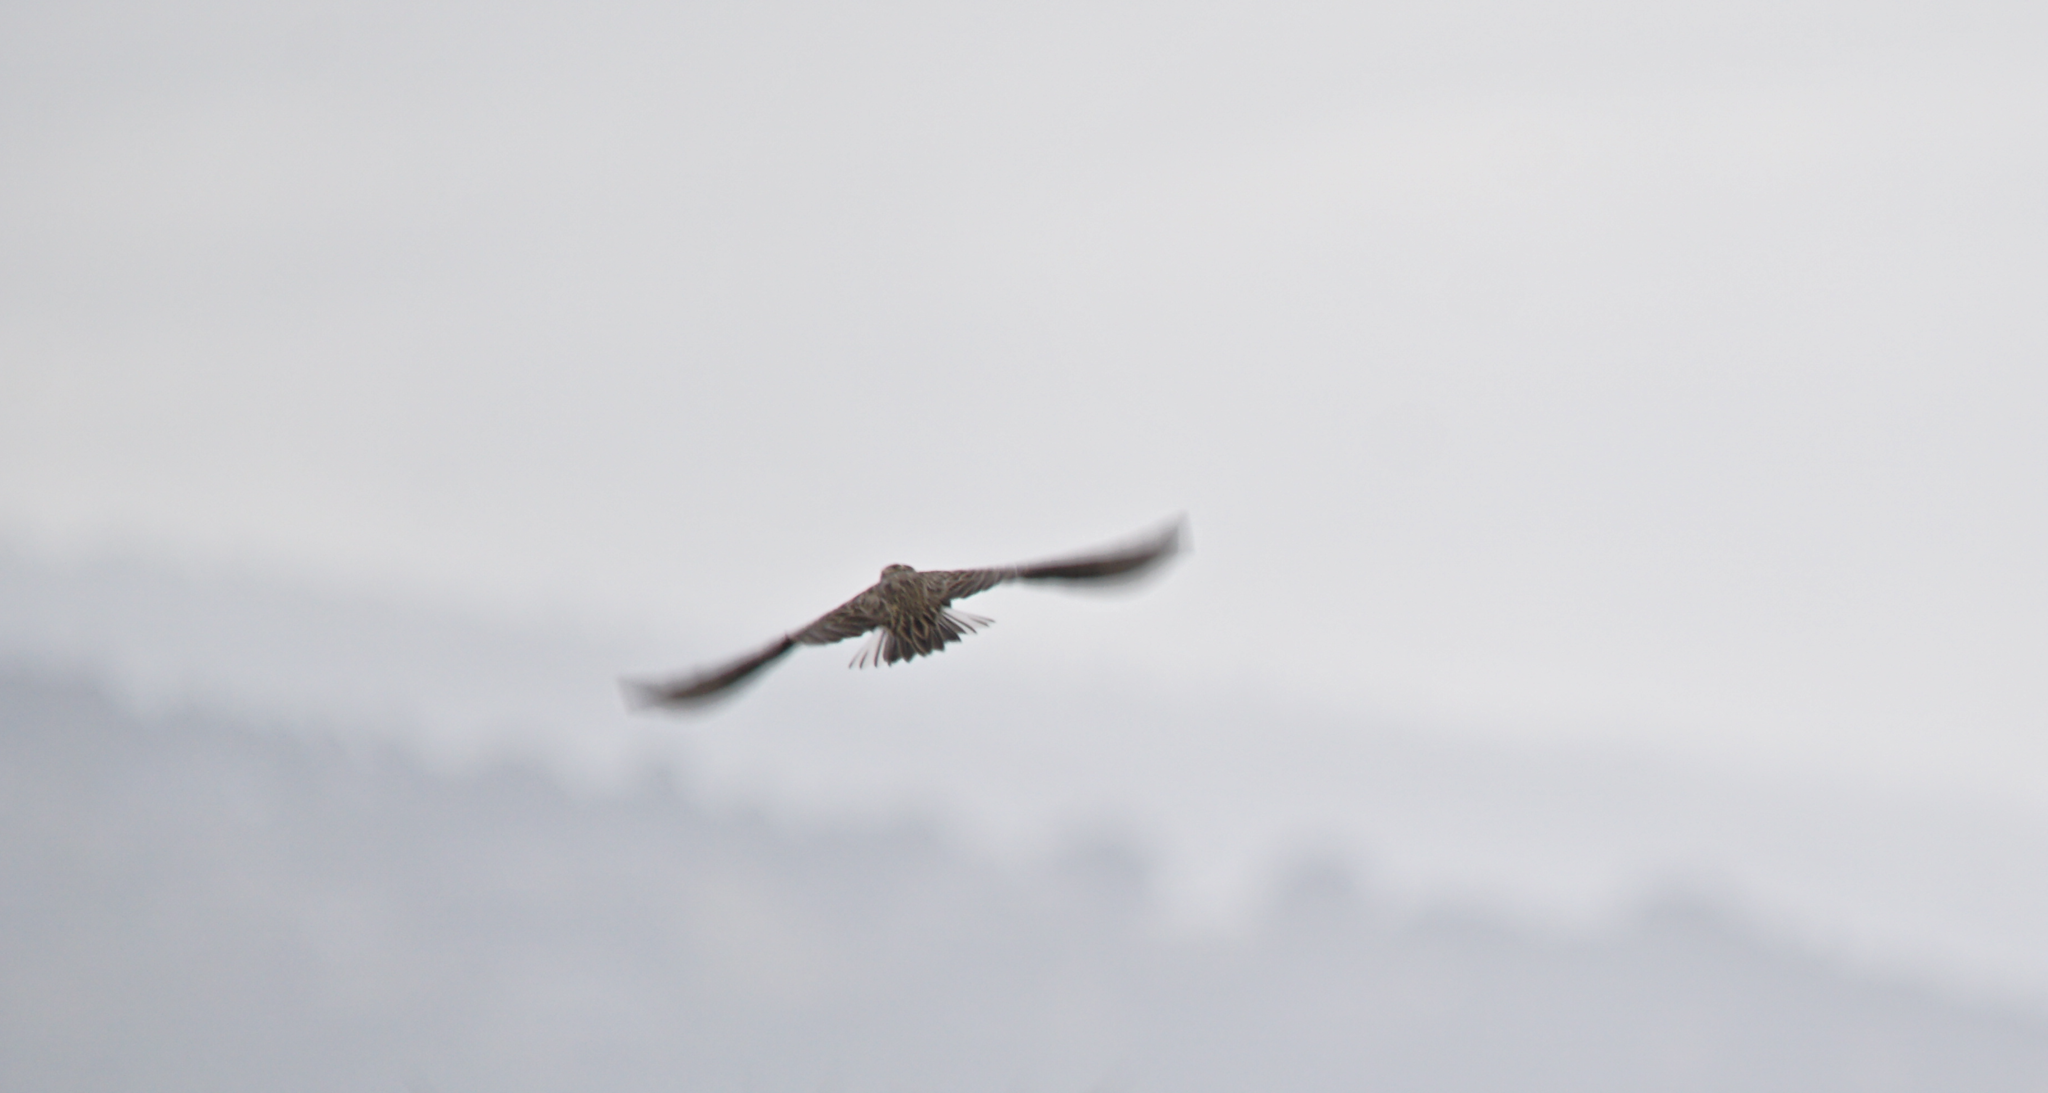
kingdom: Animalia
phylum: Chordata
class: Aves
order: Passeriformes
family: Icteridae
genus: Sturnella
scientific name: Sturnella neglecta
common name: Western meadowlark
